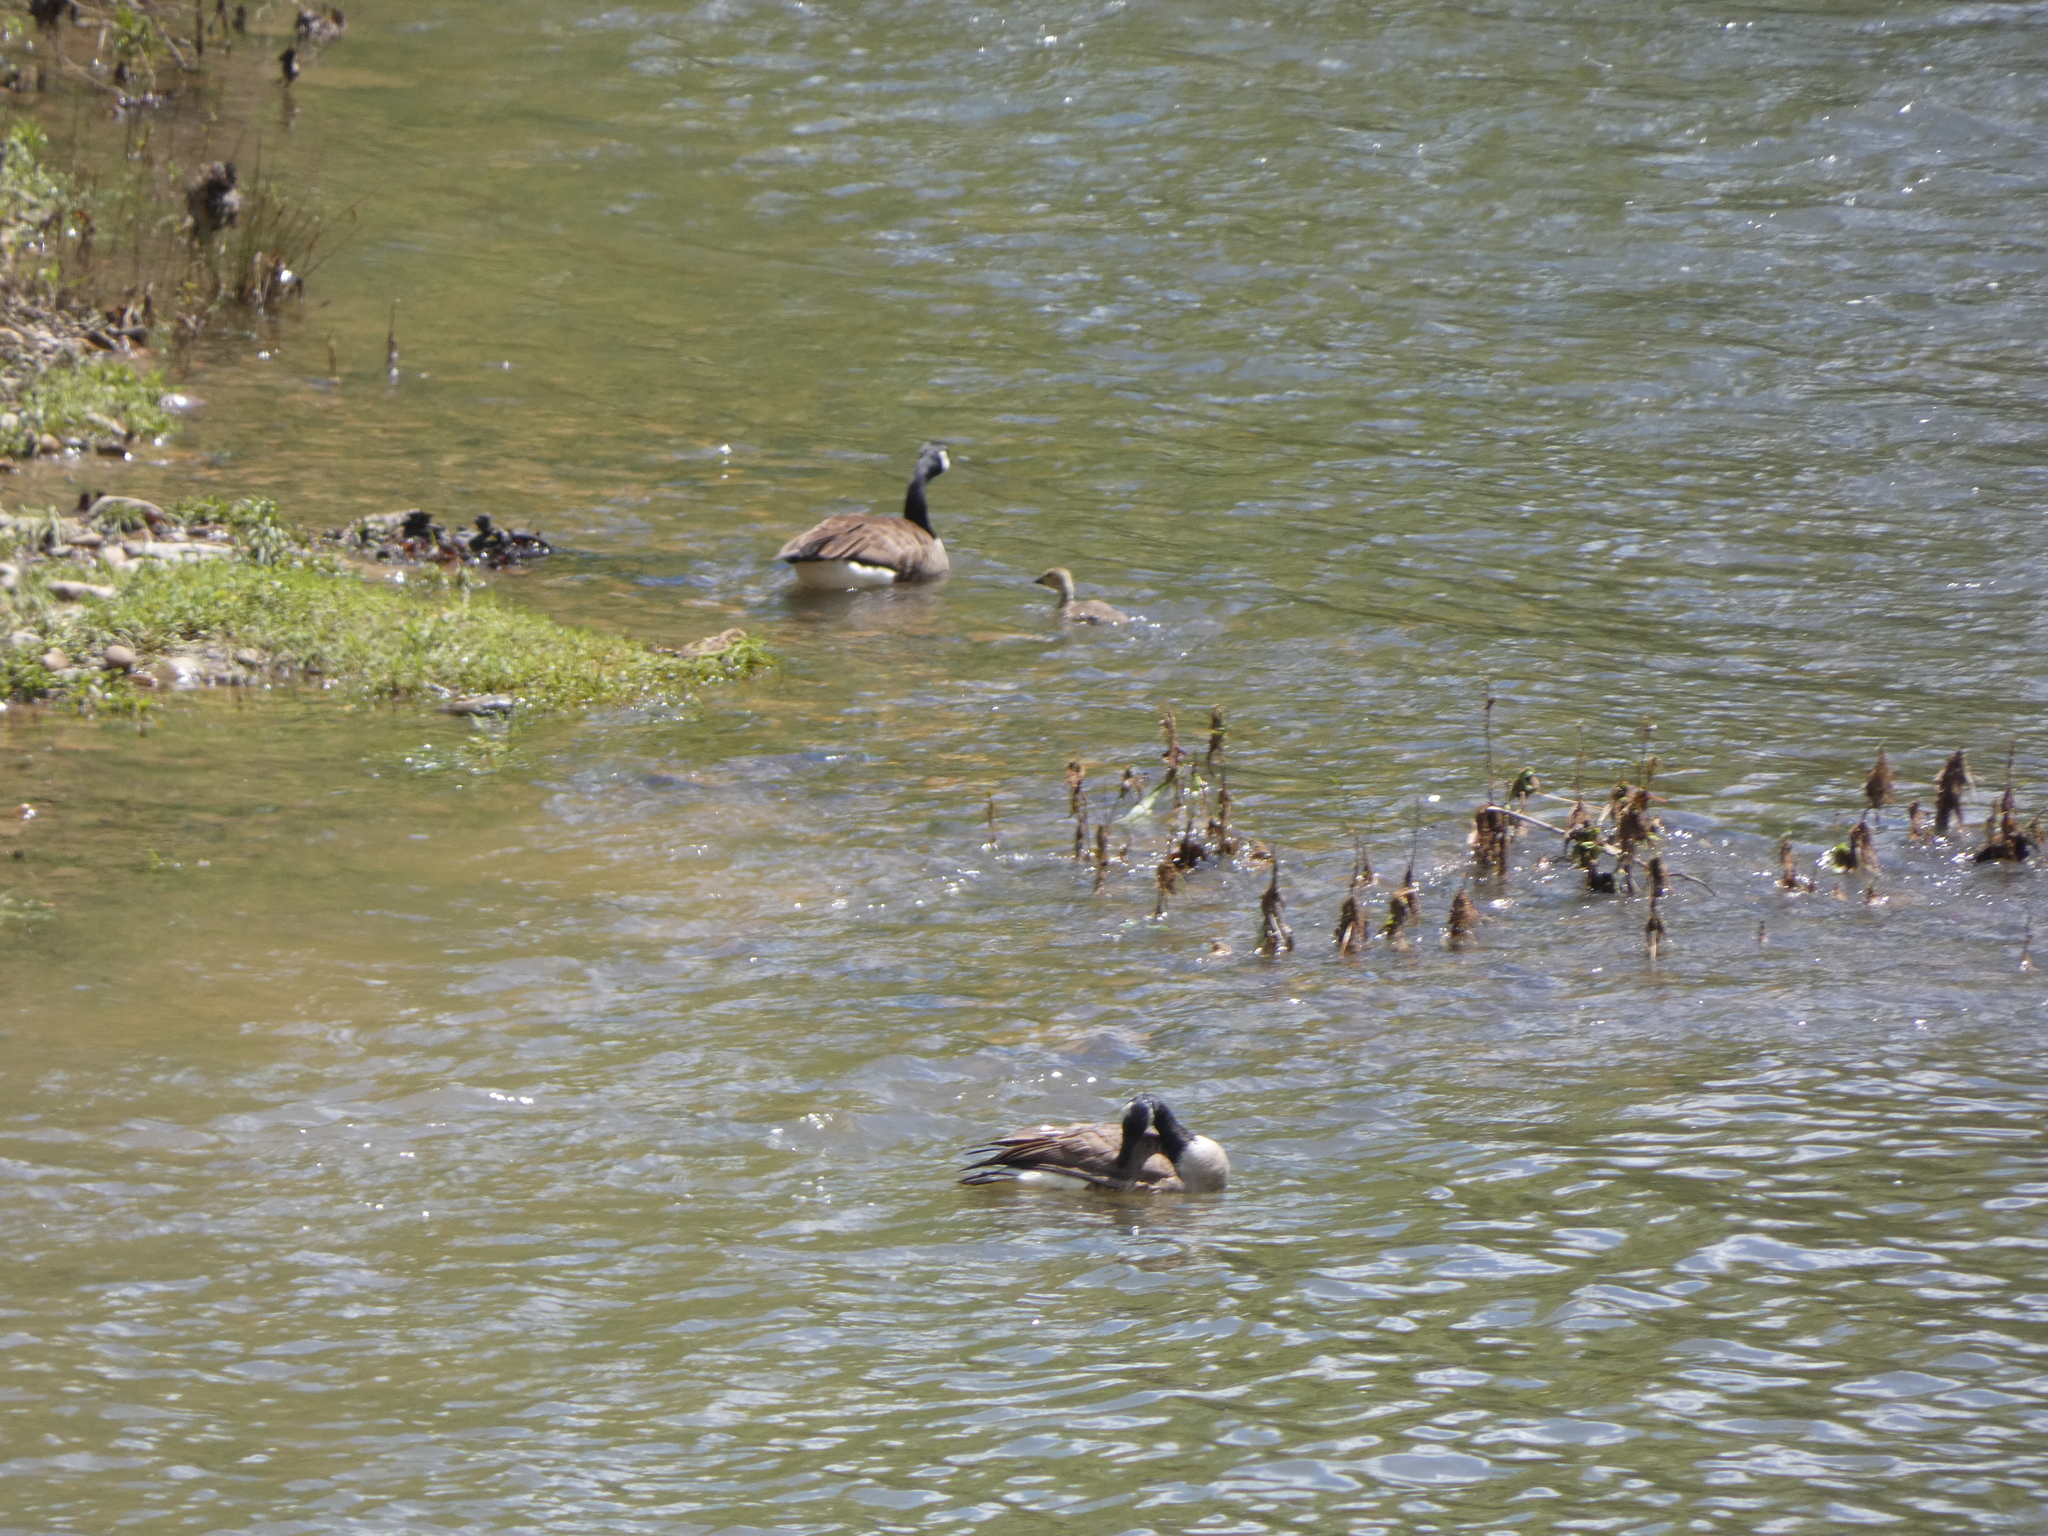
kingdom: Animalia
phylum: Chordata
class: Aves
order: Anseriformes
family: Anatidae
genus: Branta
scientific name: Branta canadensis
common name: Canada goose
